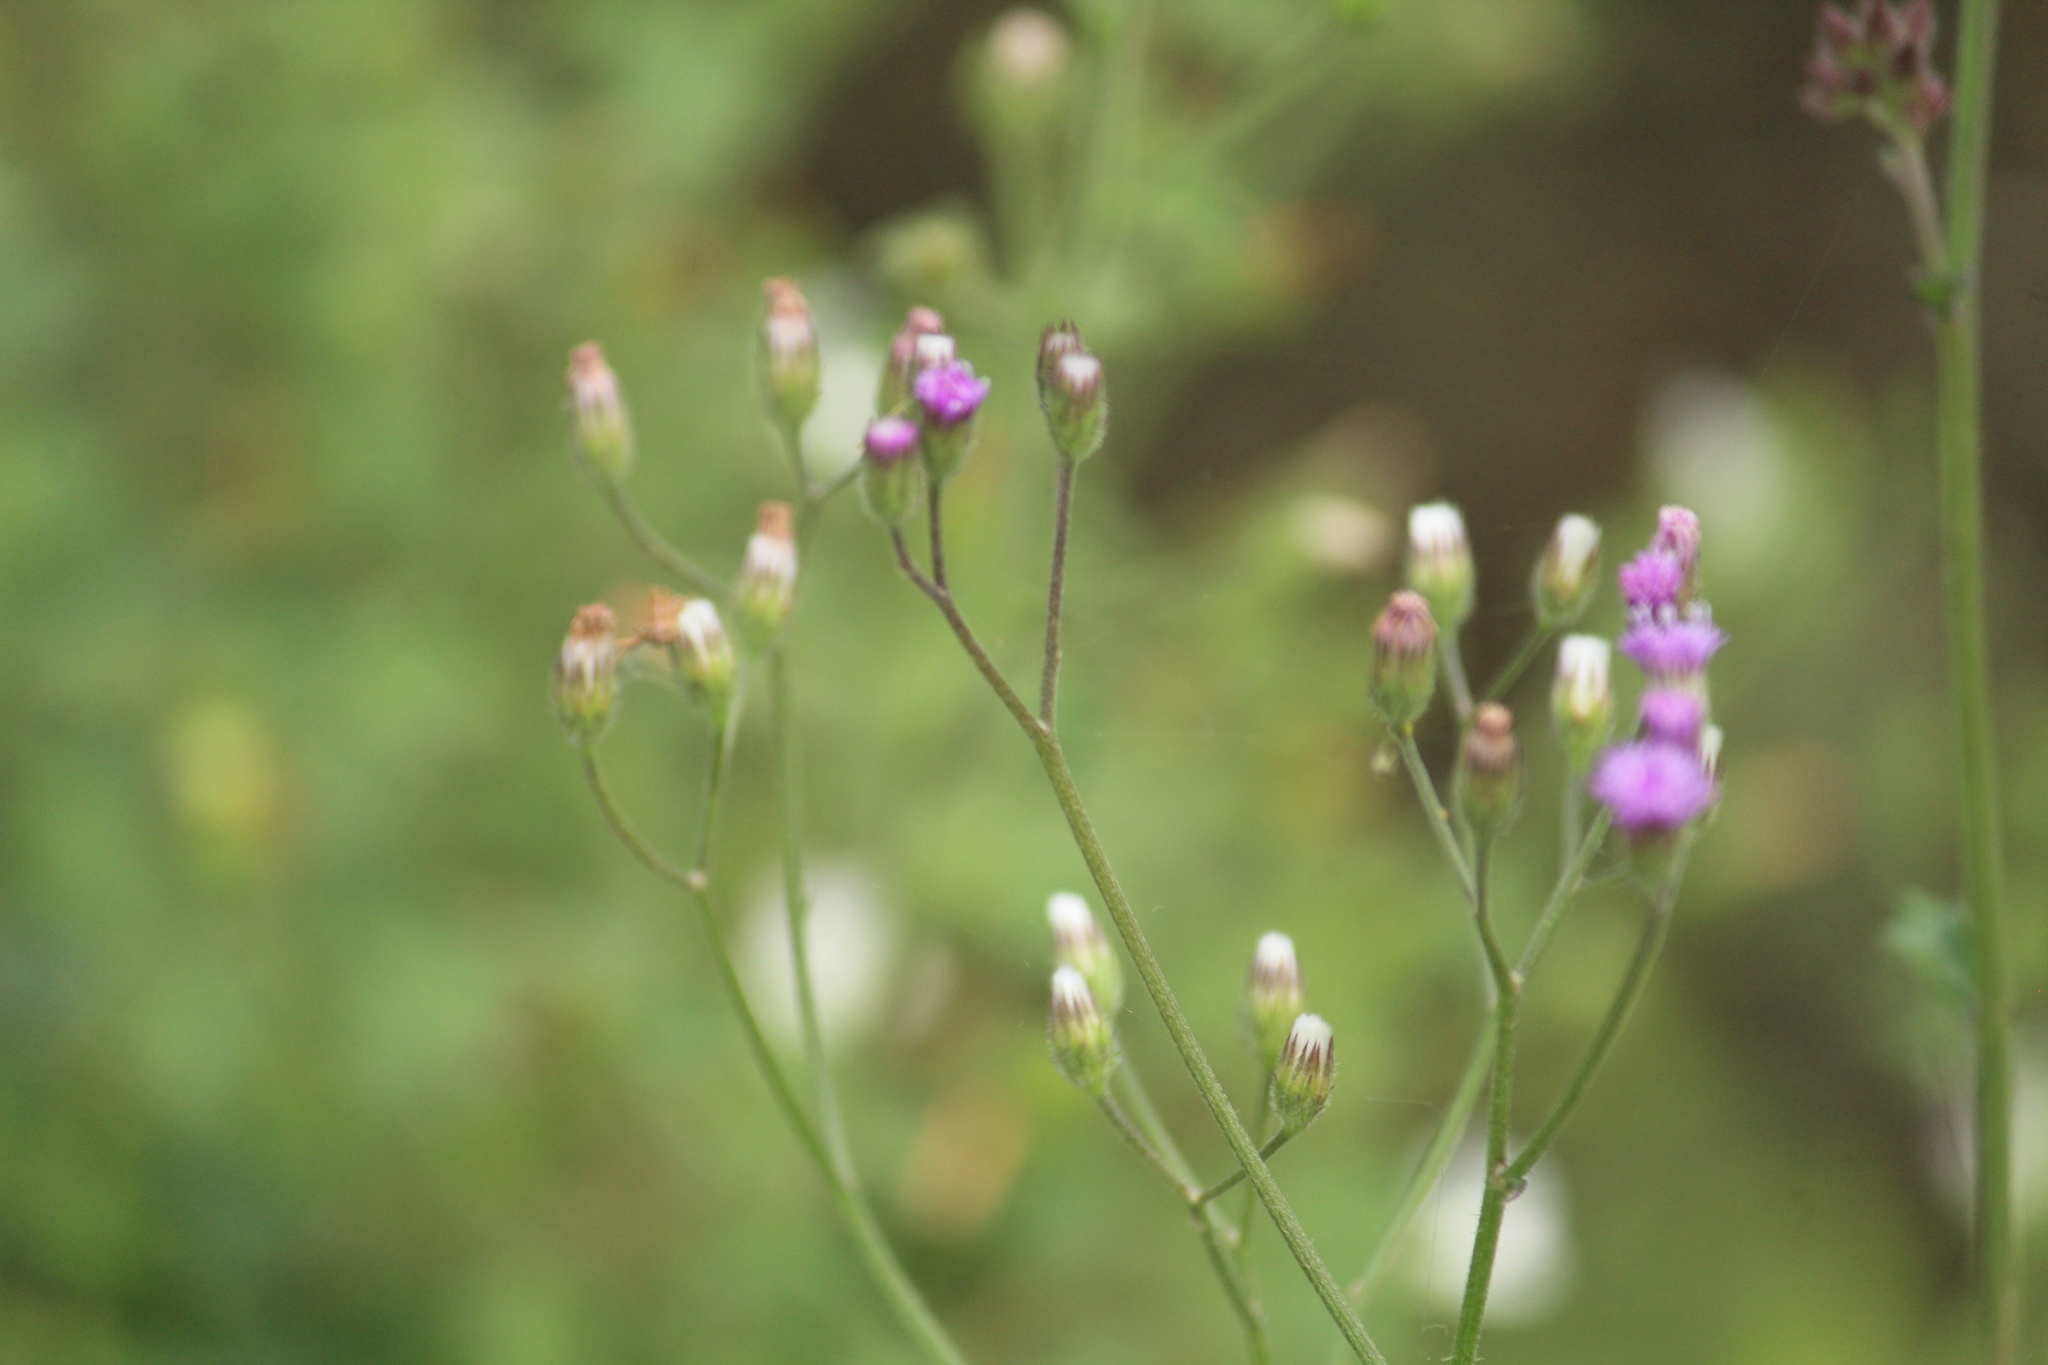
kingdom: Plantae
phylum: Tracheophyta
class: Magnoliopsida
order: Asterales
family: Asteraceae
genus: Cyanthillium
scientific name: Cyanthillium cinereum
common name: Little ironweed
